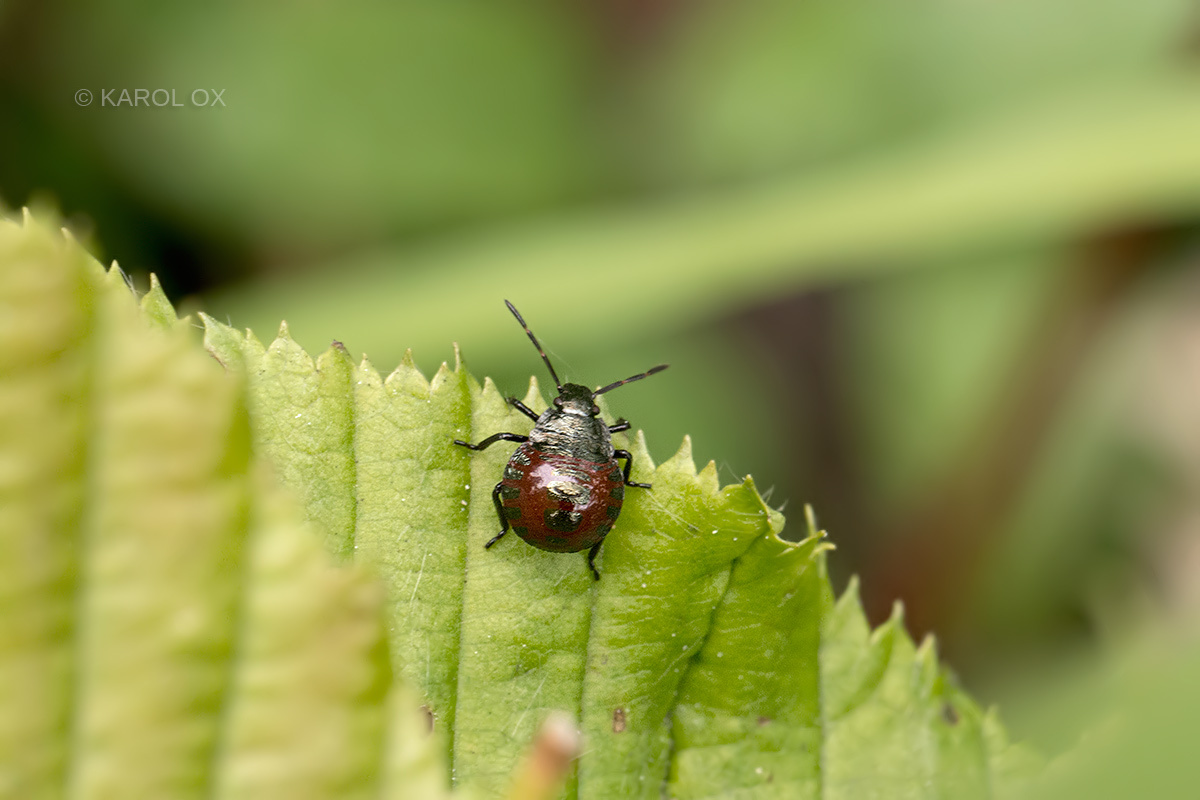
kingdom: Animalia
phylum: Arthropoda
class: Insecta
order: Hemiptera
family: Pentatomidae
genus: Picromerus
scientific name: Picromerus bidens
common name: Spiked shieldbug
